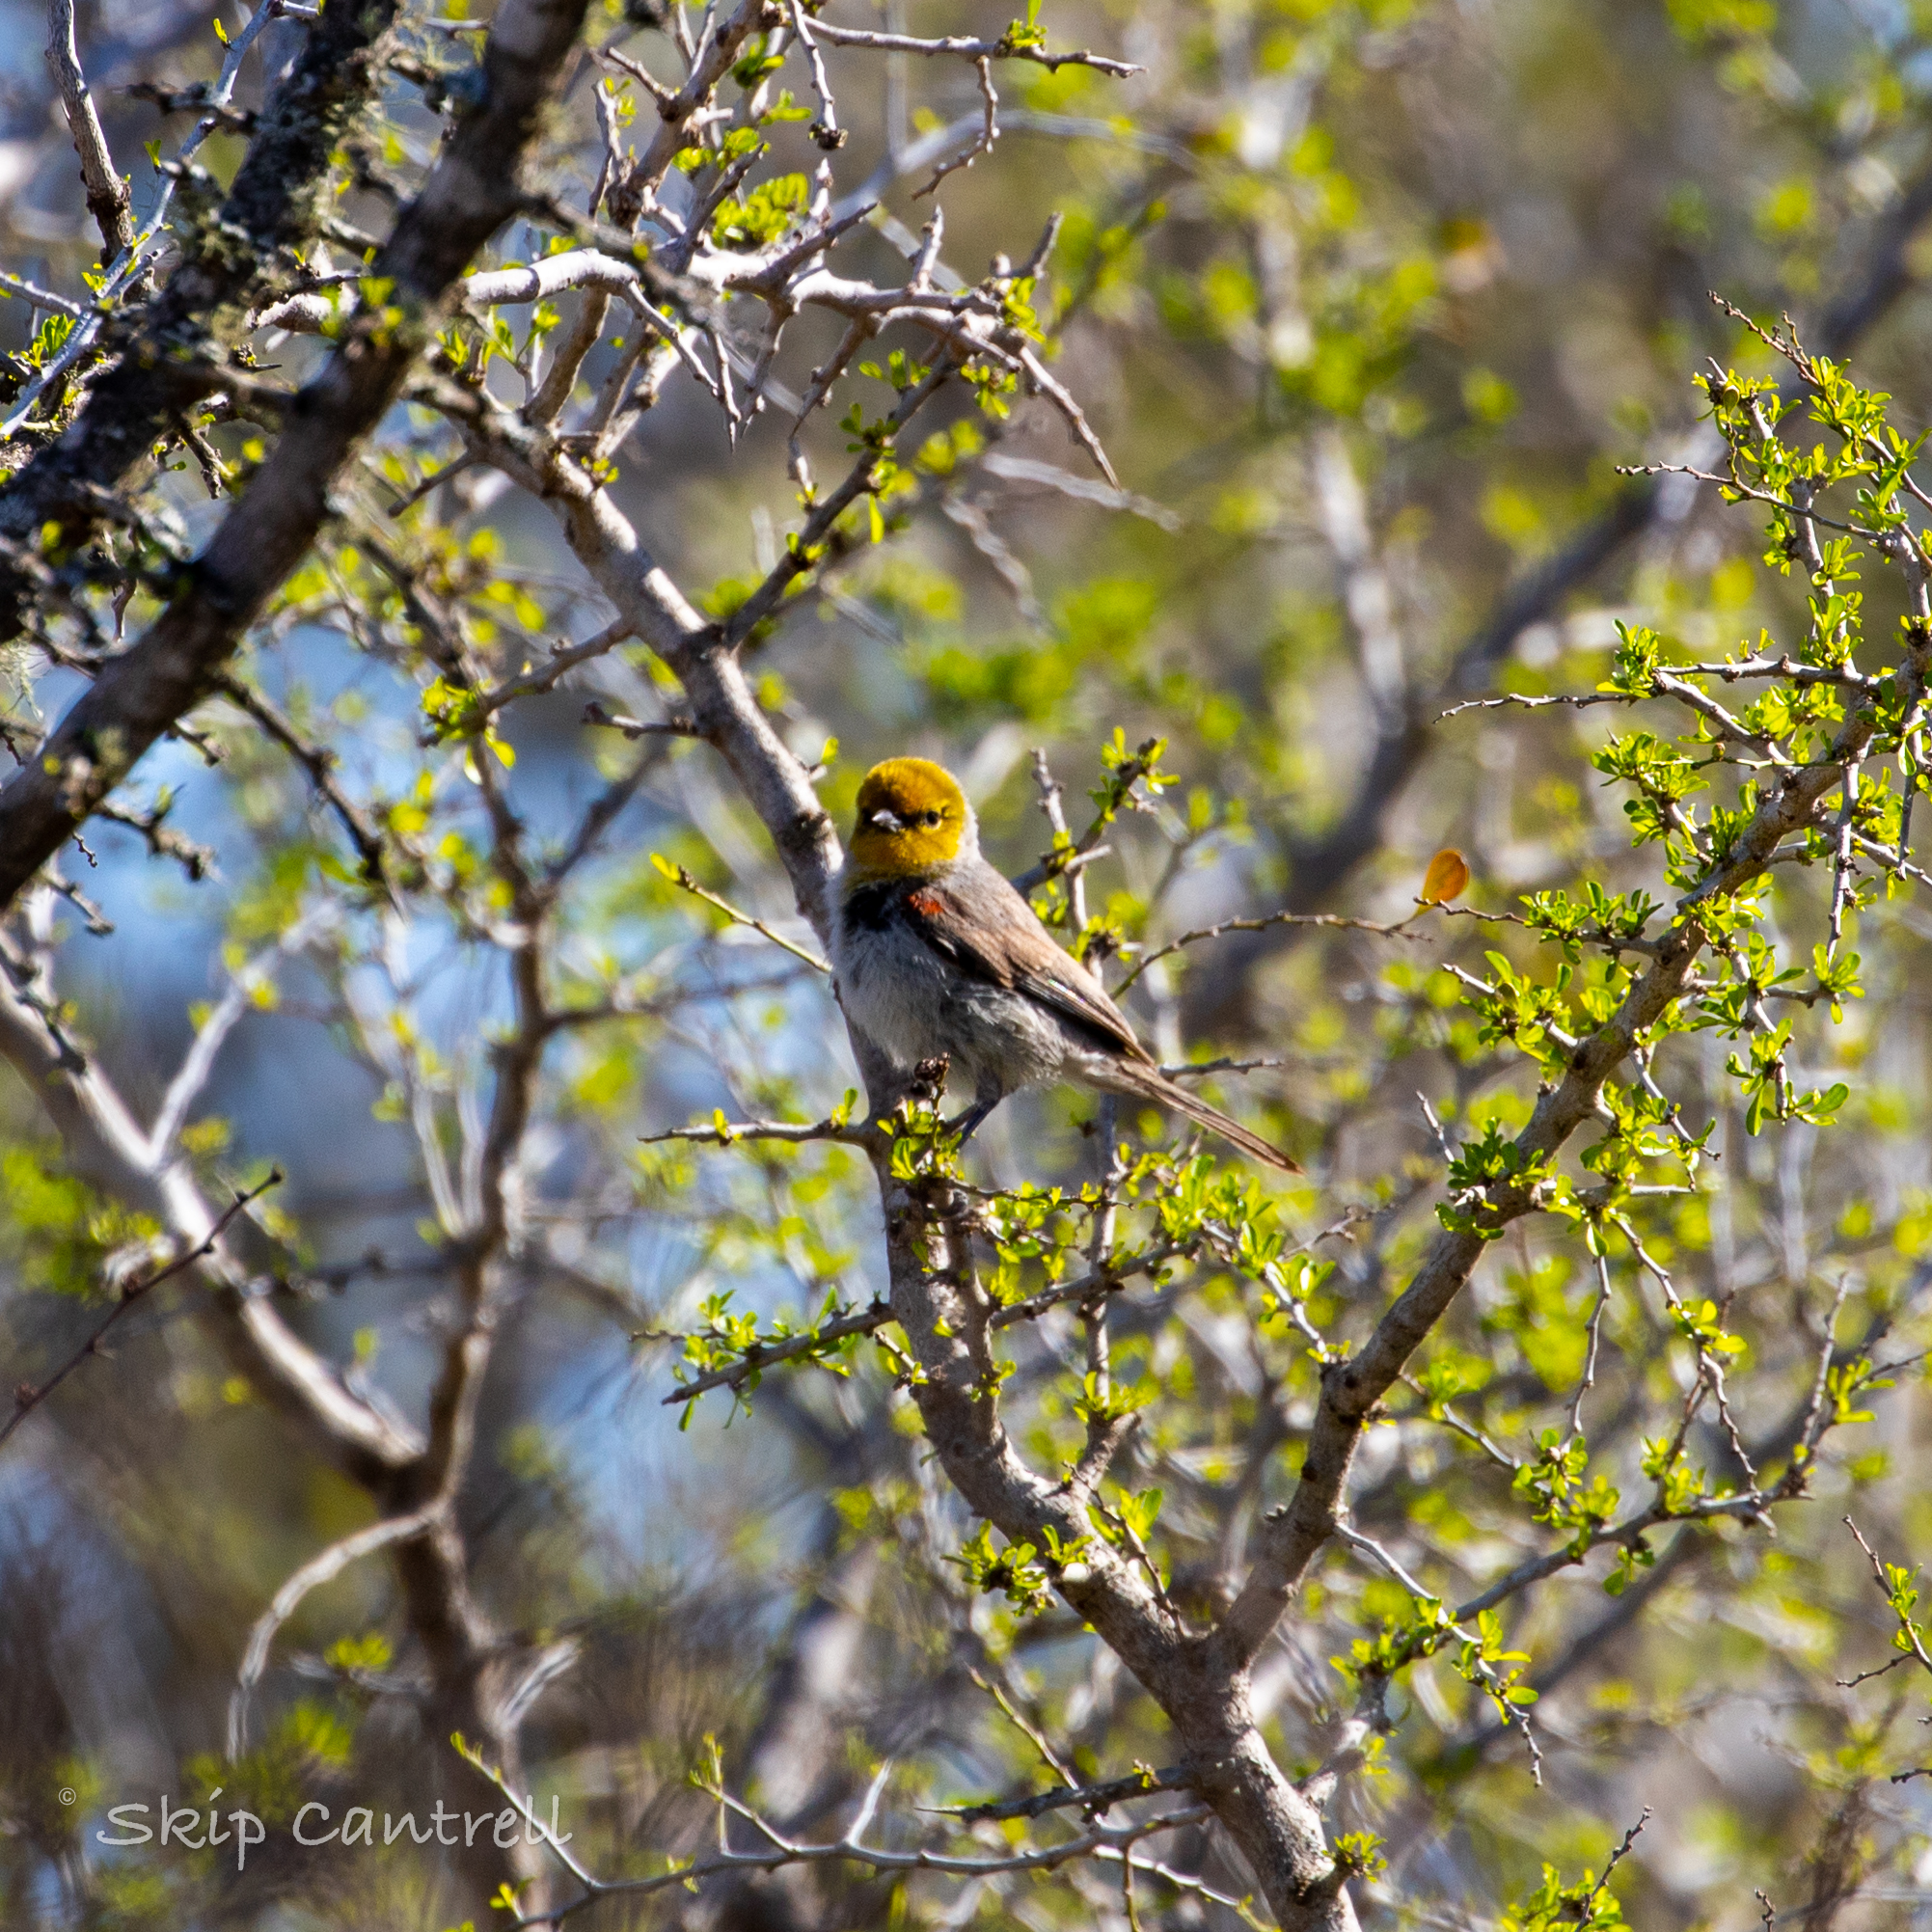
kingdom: Animalia
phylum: Chordata
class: Aves
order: Passeriformes
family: Remizidae
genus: Auriparus
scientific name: Auriparus flaviceps
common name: Verdin
